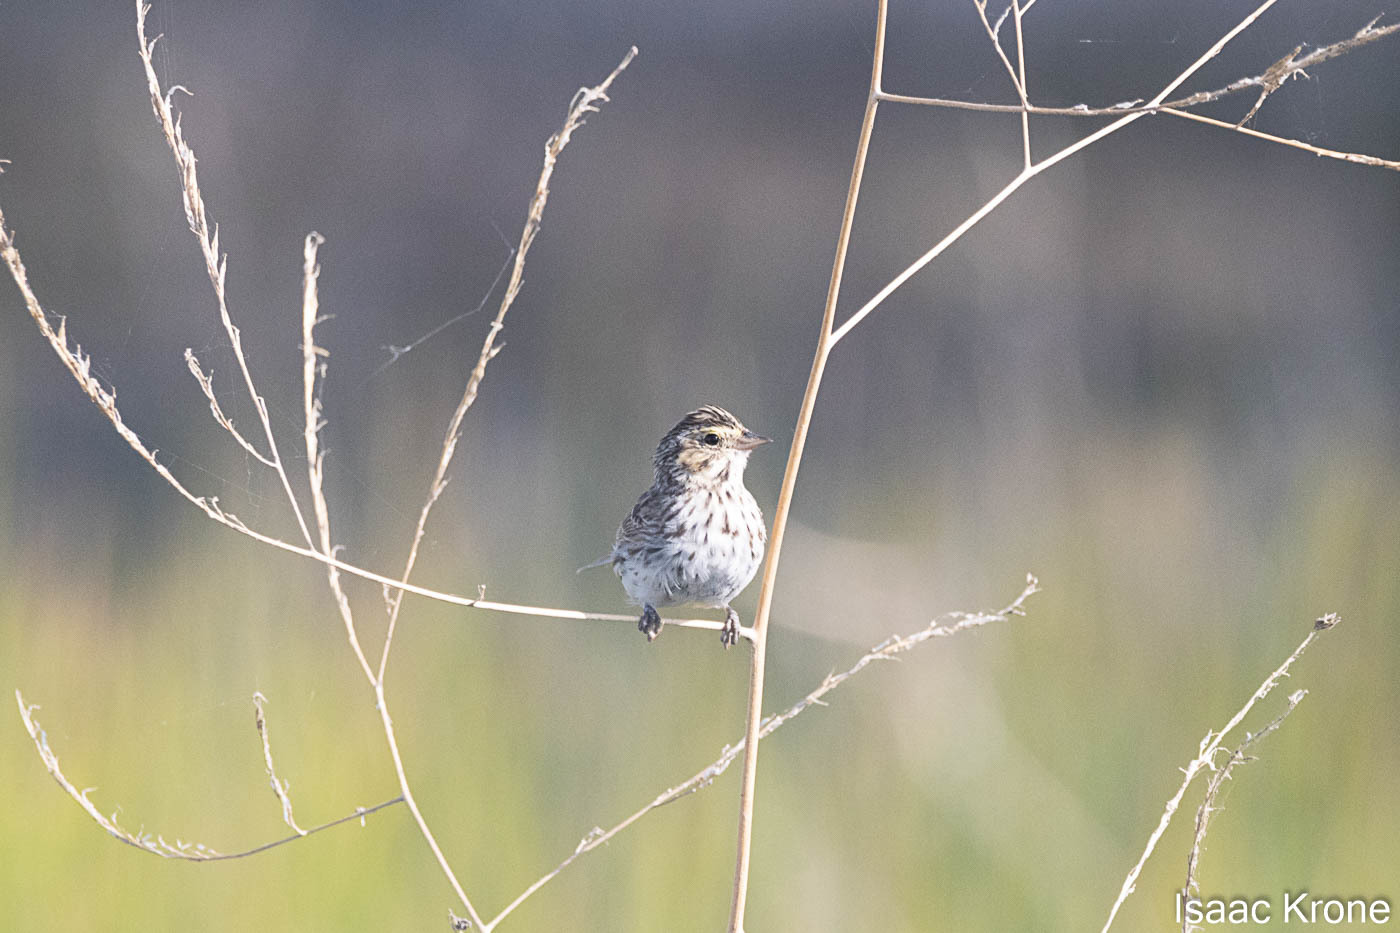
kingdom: Animalia
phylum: Chordata
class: Aves
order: Passeriformes
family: Passerellidae
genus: Passerculus
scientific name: Passerculus sandwichensis
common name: Savannah sparrow
